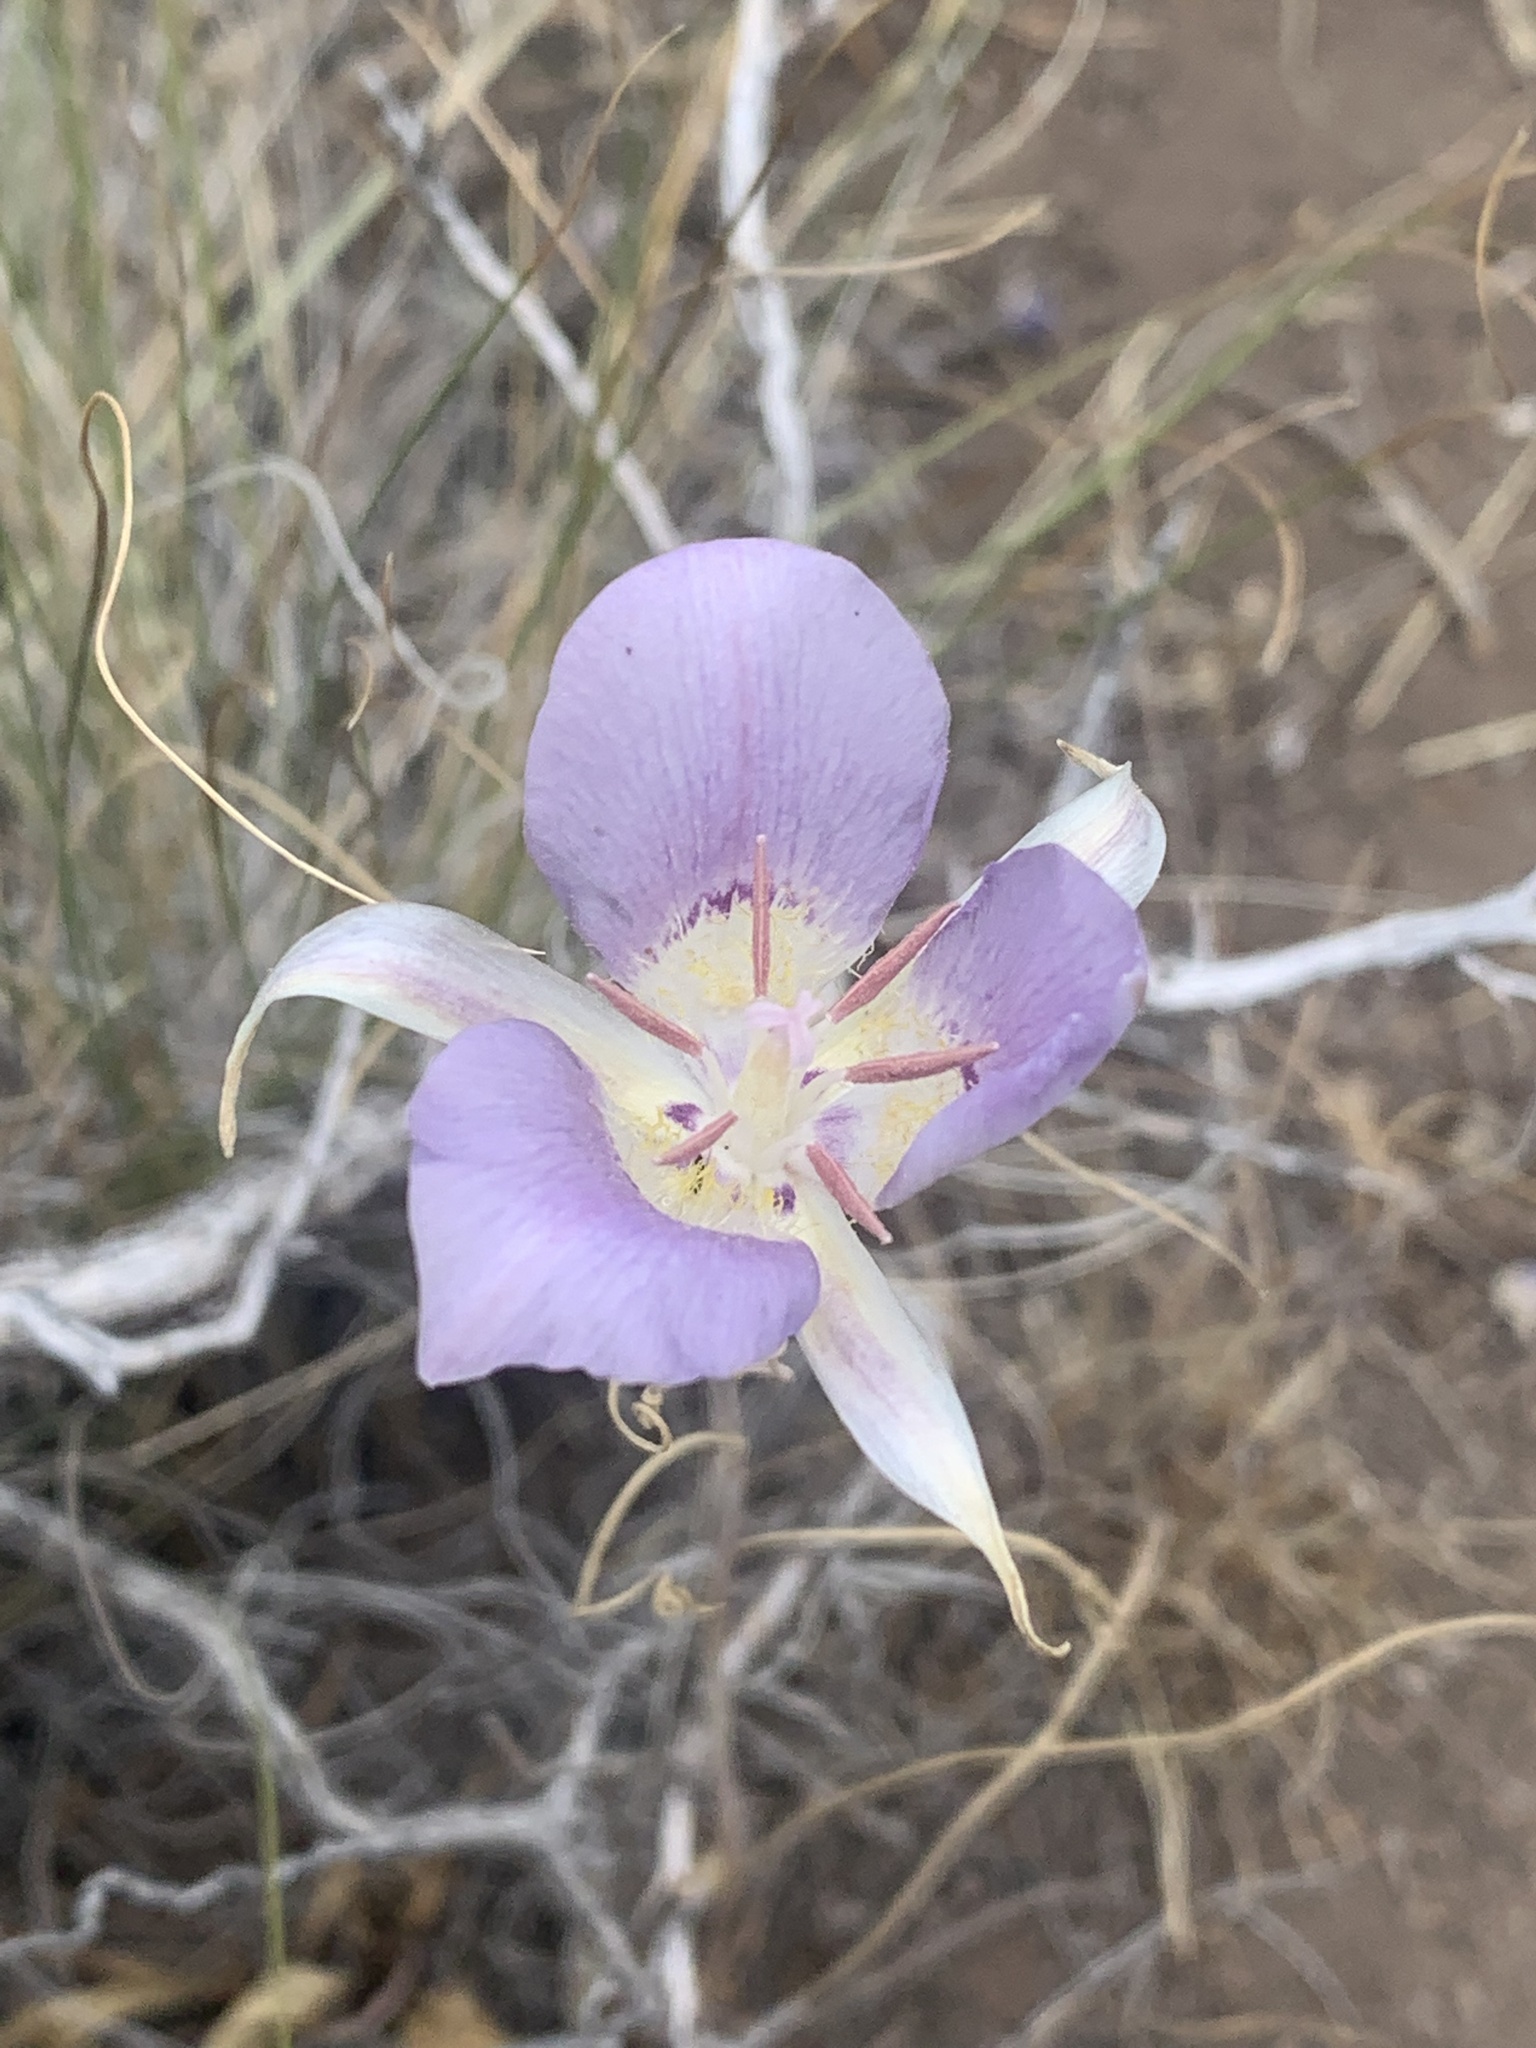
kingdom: Plantae
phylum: Tracheophyta
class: Liliopsida
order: Liliales
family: Liliaceae
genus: Calochortus
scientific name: Calochortus macrocarpus
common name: Green-band mariposa lily
